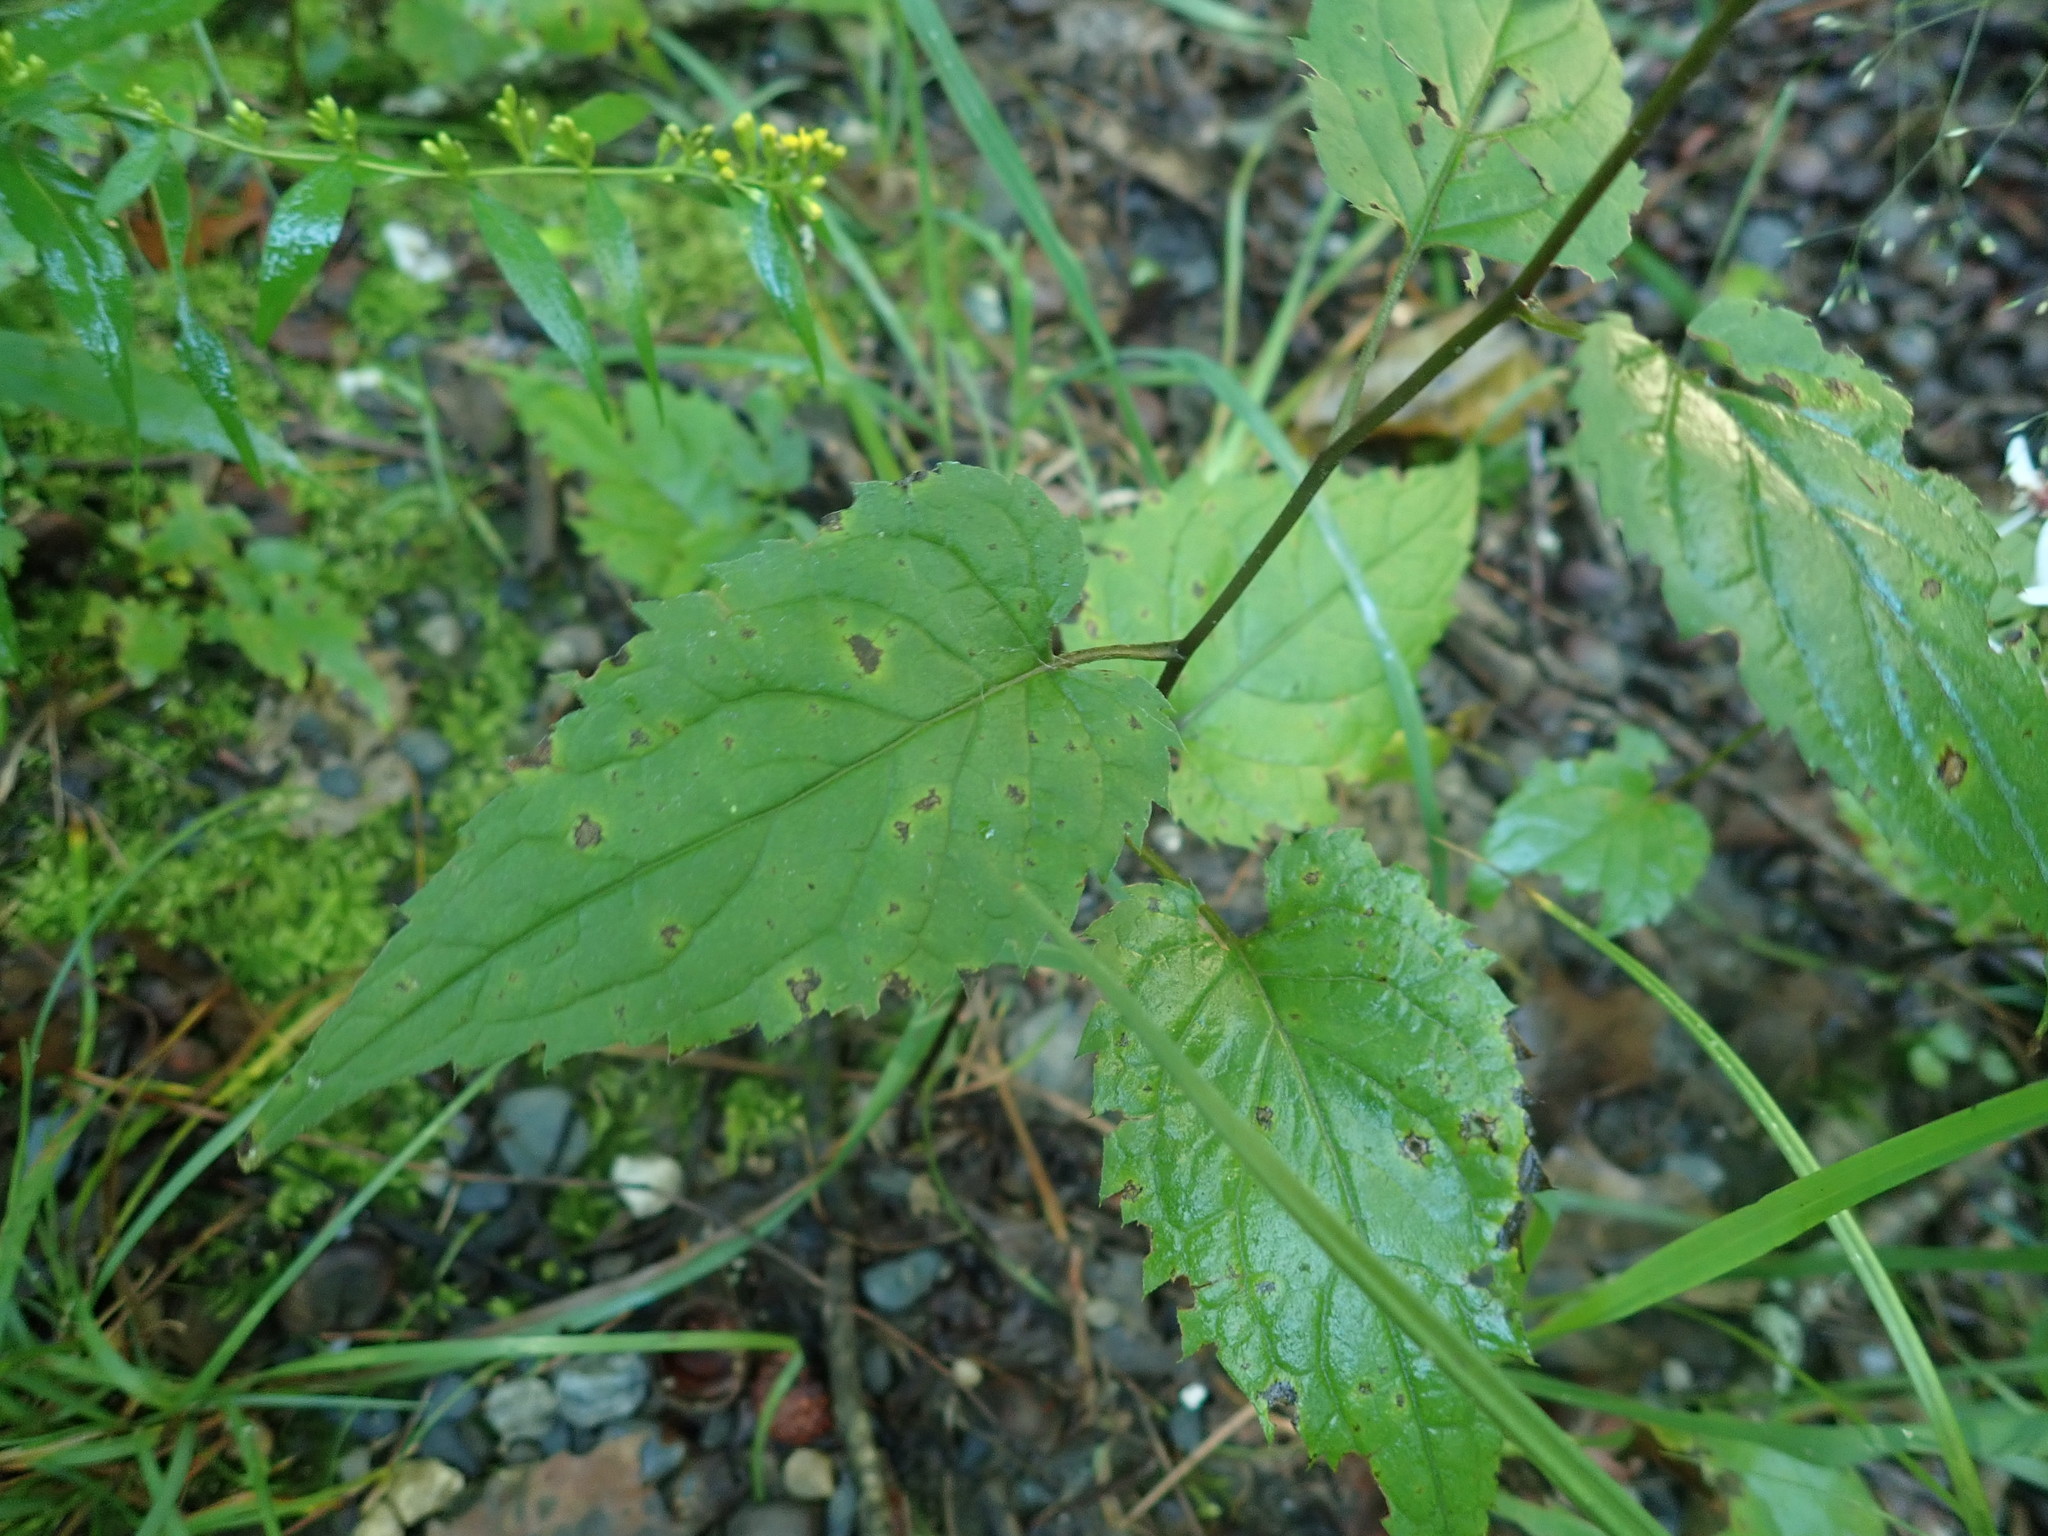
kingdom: Plantae
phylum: Tracheophyta
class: Magnoliopsida
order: Asterales
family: Asteraceae
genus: Eurybia
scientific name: Eurybia divaricata
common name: White wood aster
